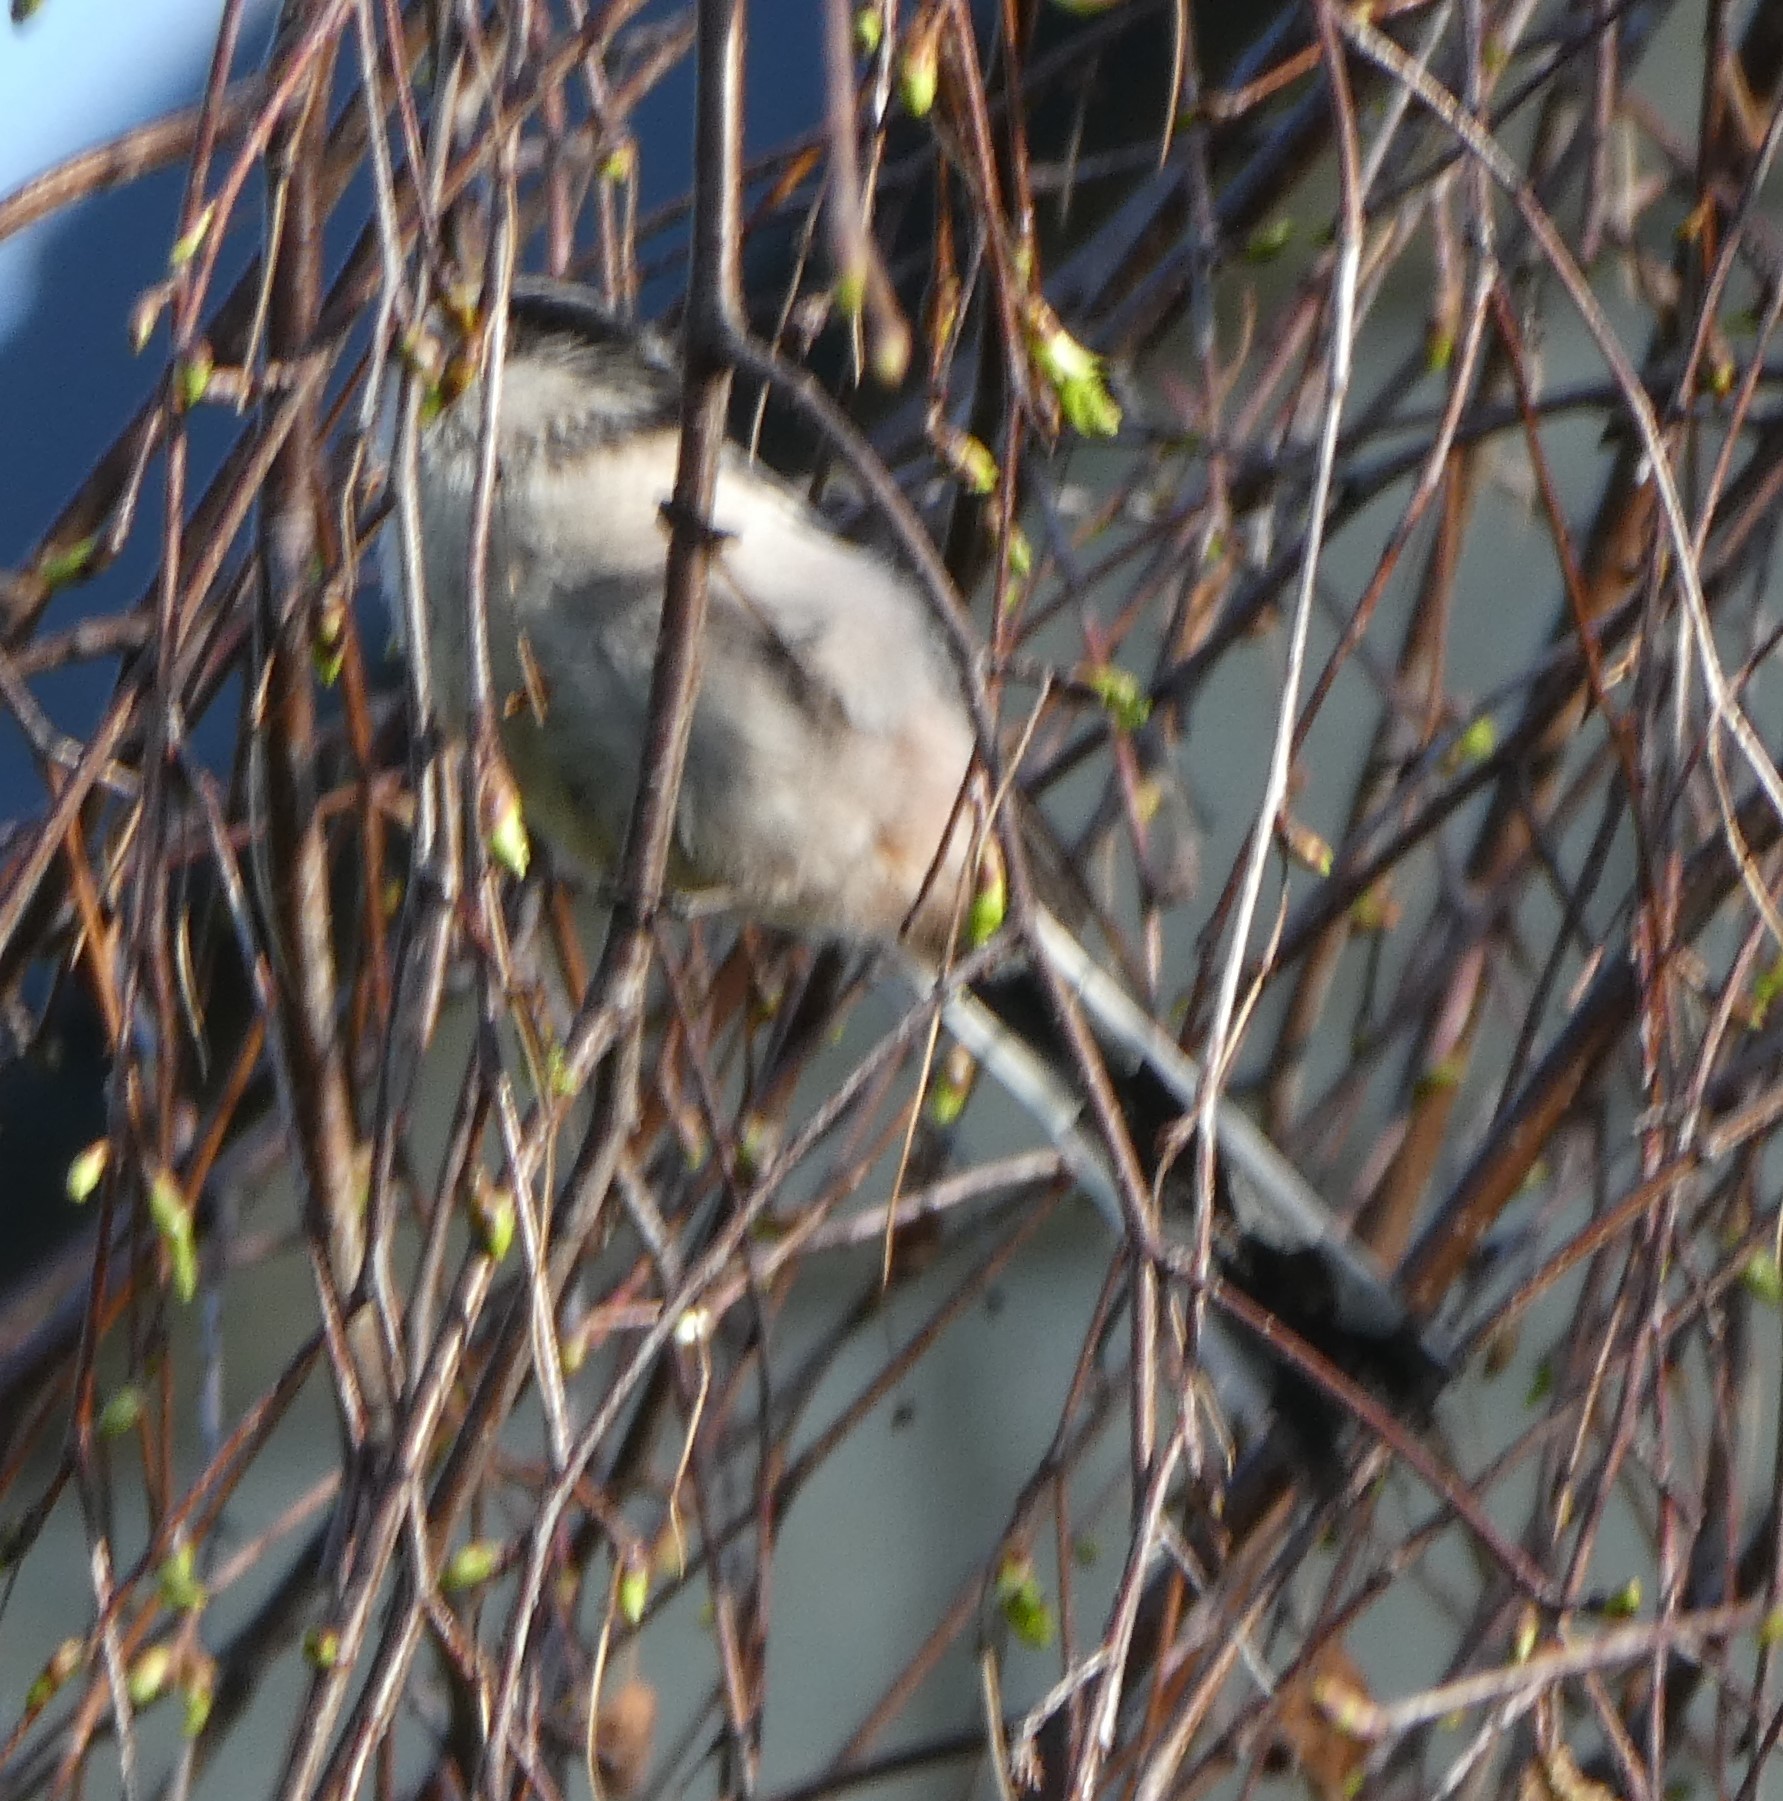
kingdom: Animalia
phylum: Chordata
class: Aves
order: Passeriformes
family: Aegithalidae
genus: Aegithalos
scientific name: Aegithalos caudatus
